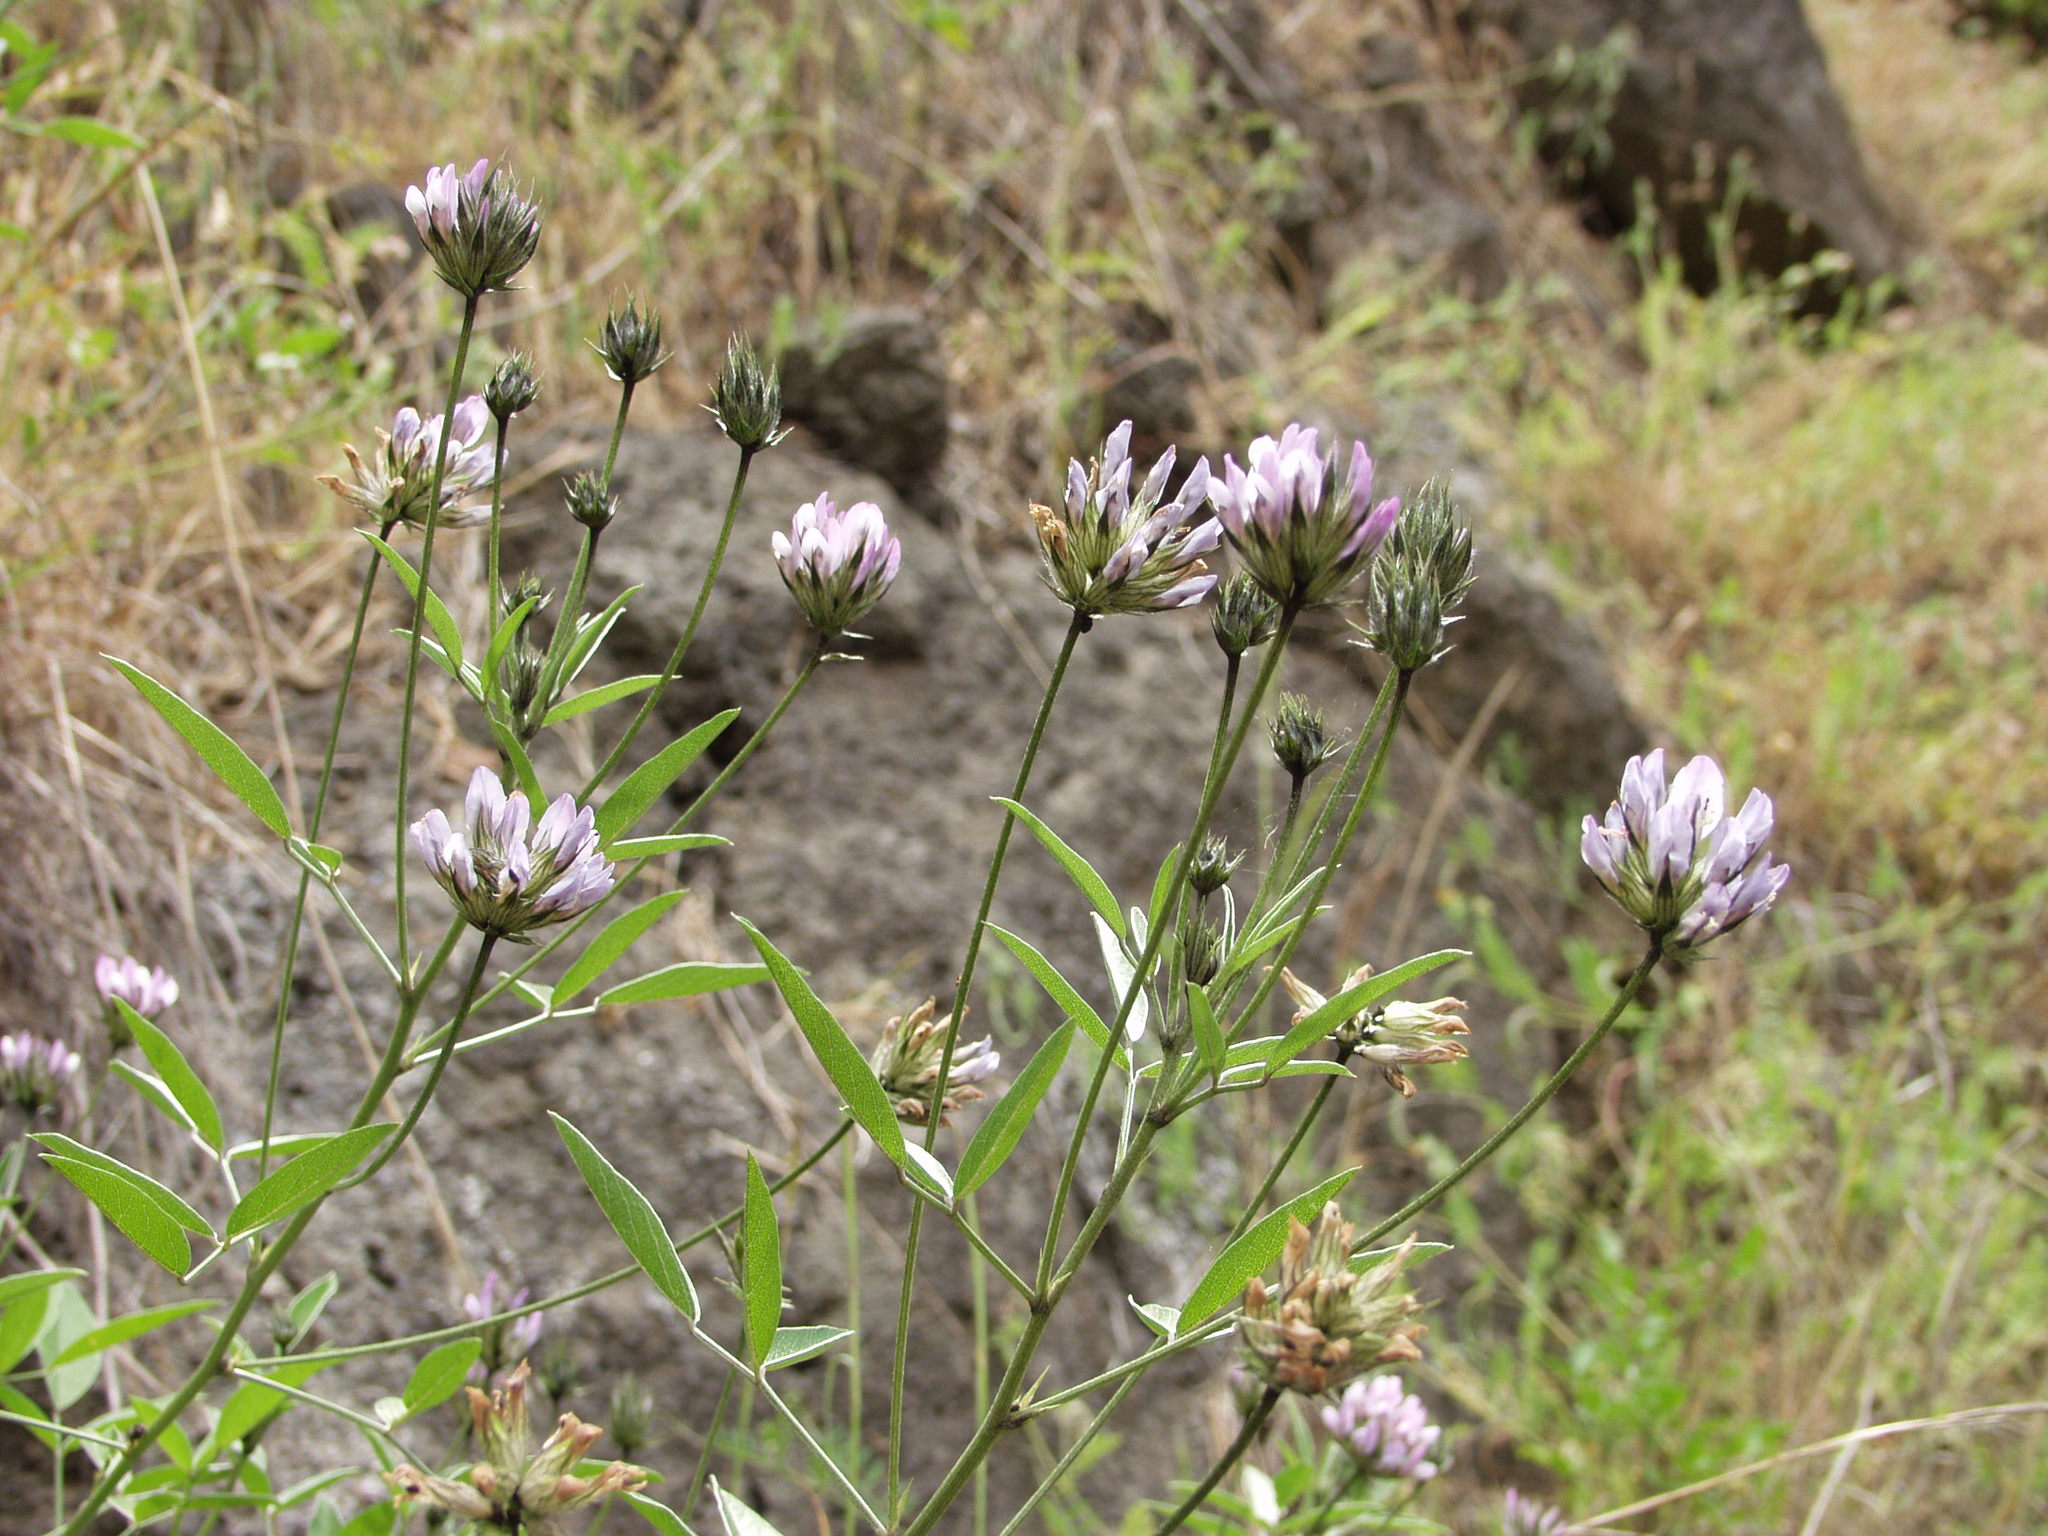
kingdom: Plantae
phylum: Tracheophyta
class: Magnoliopsida
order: Fabales
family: Fabaceae
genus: Bituminaria
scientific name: Bituminaria bituminosa
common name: Arabian pea
